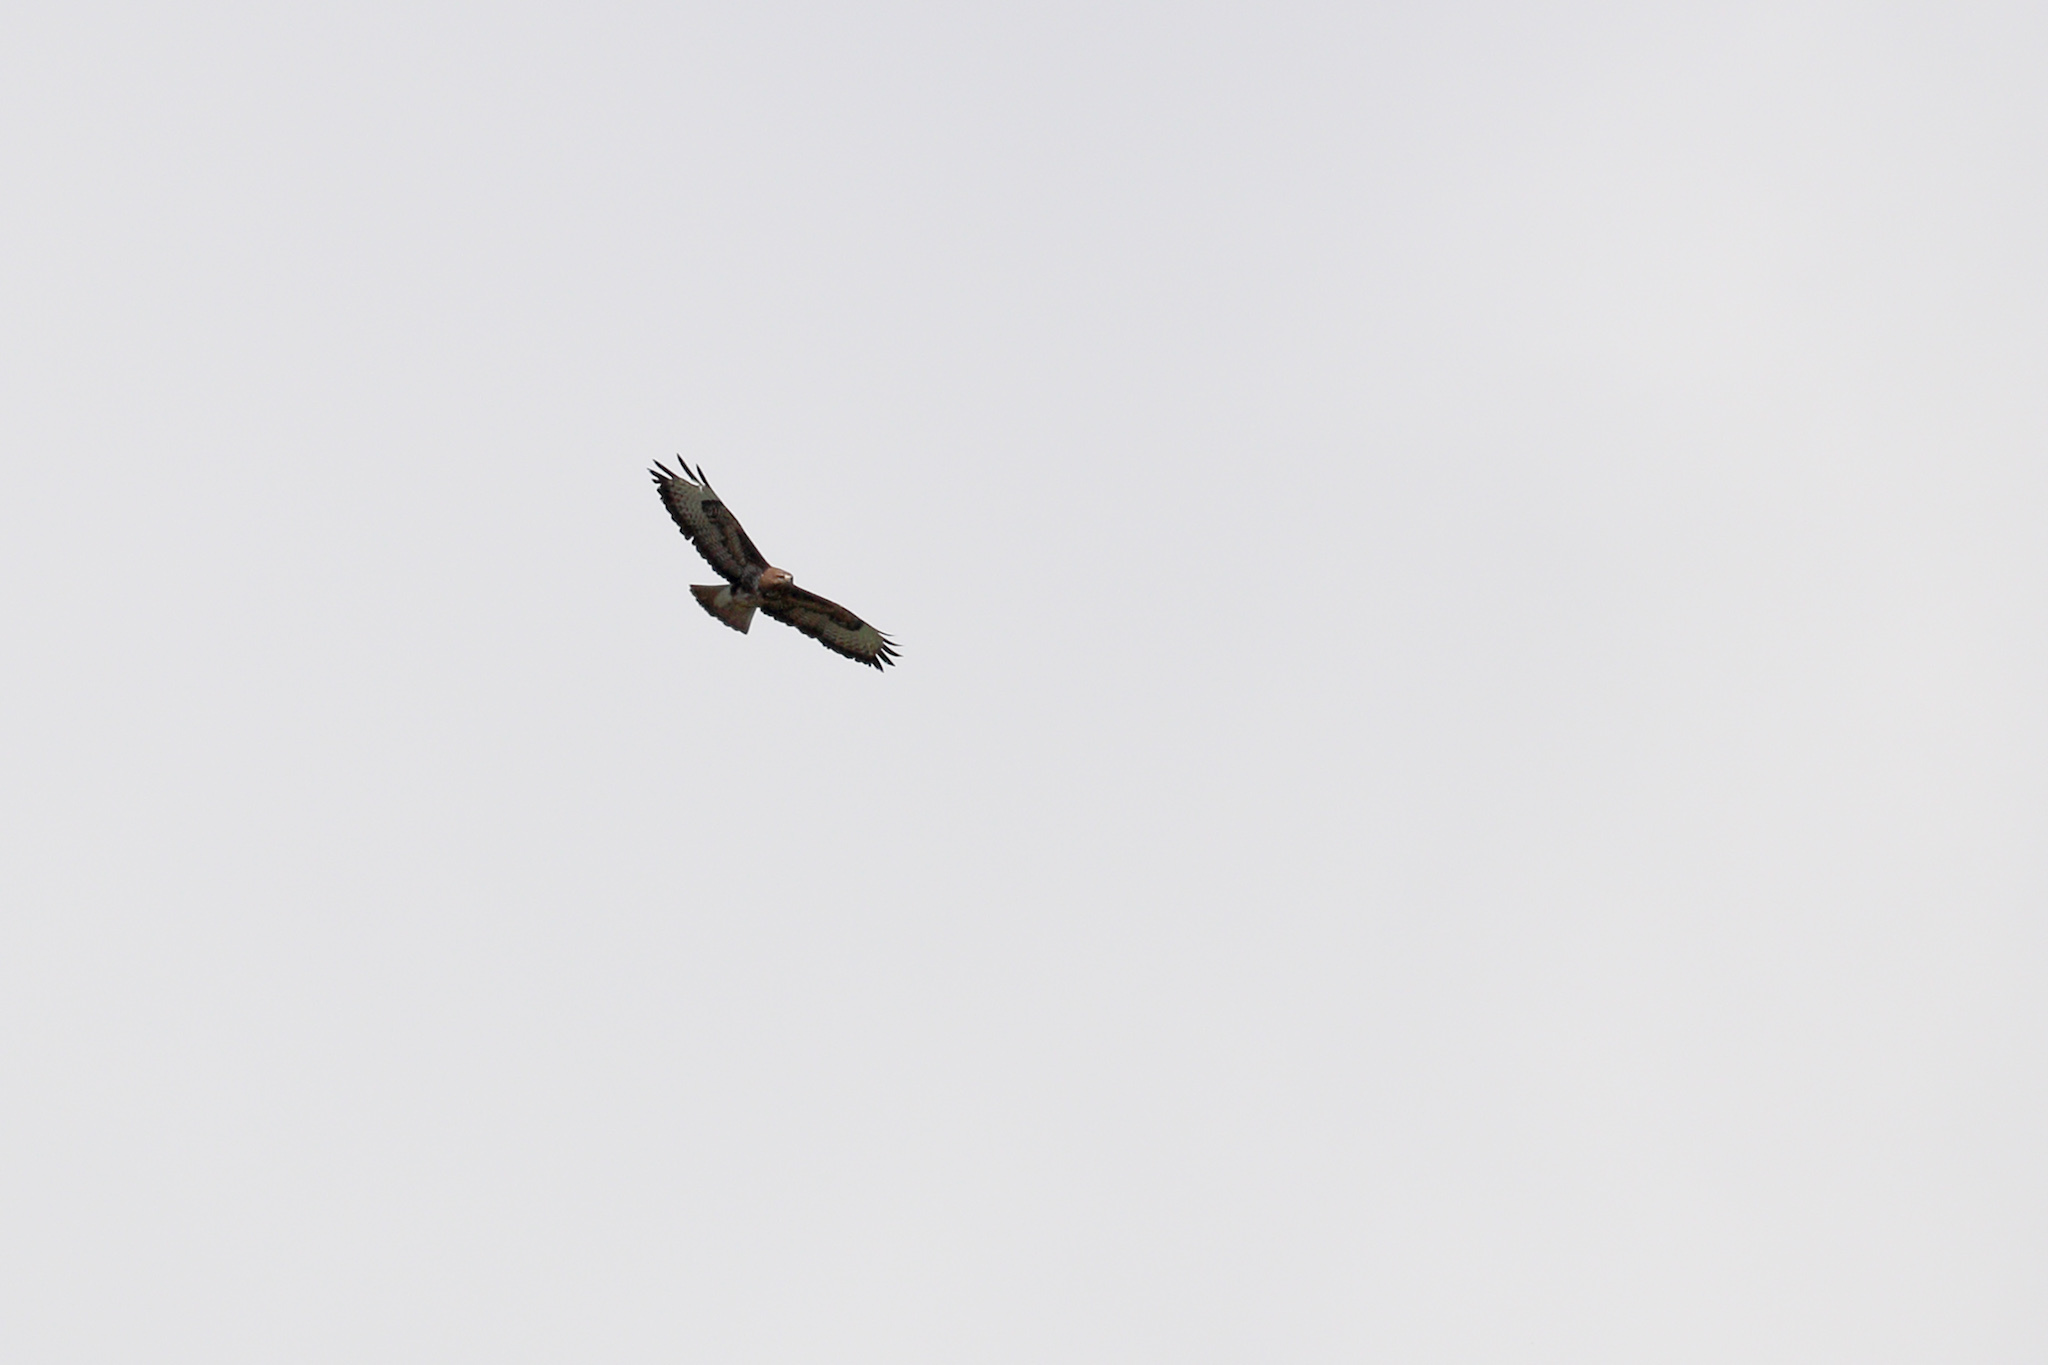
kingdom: Animalia
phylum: Chordata
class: Aves
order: Accipitriformes
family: Accipitridae
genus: Buteo
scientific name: Buteo buteo
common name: Common buzzard
